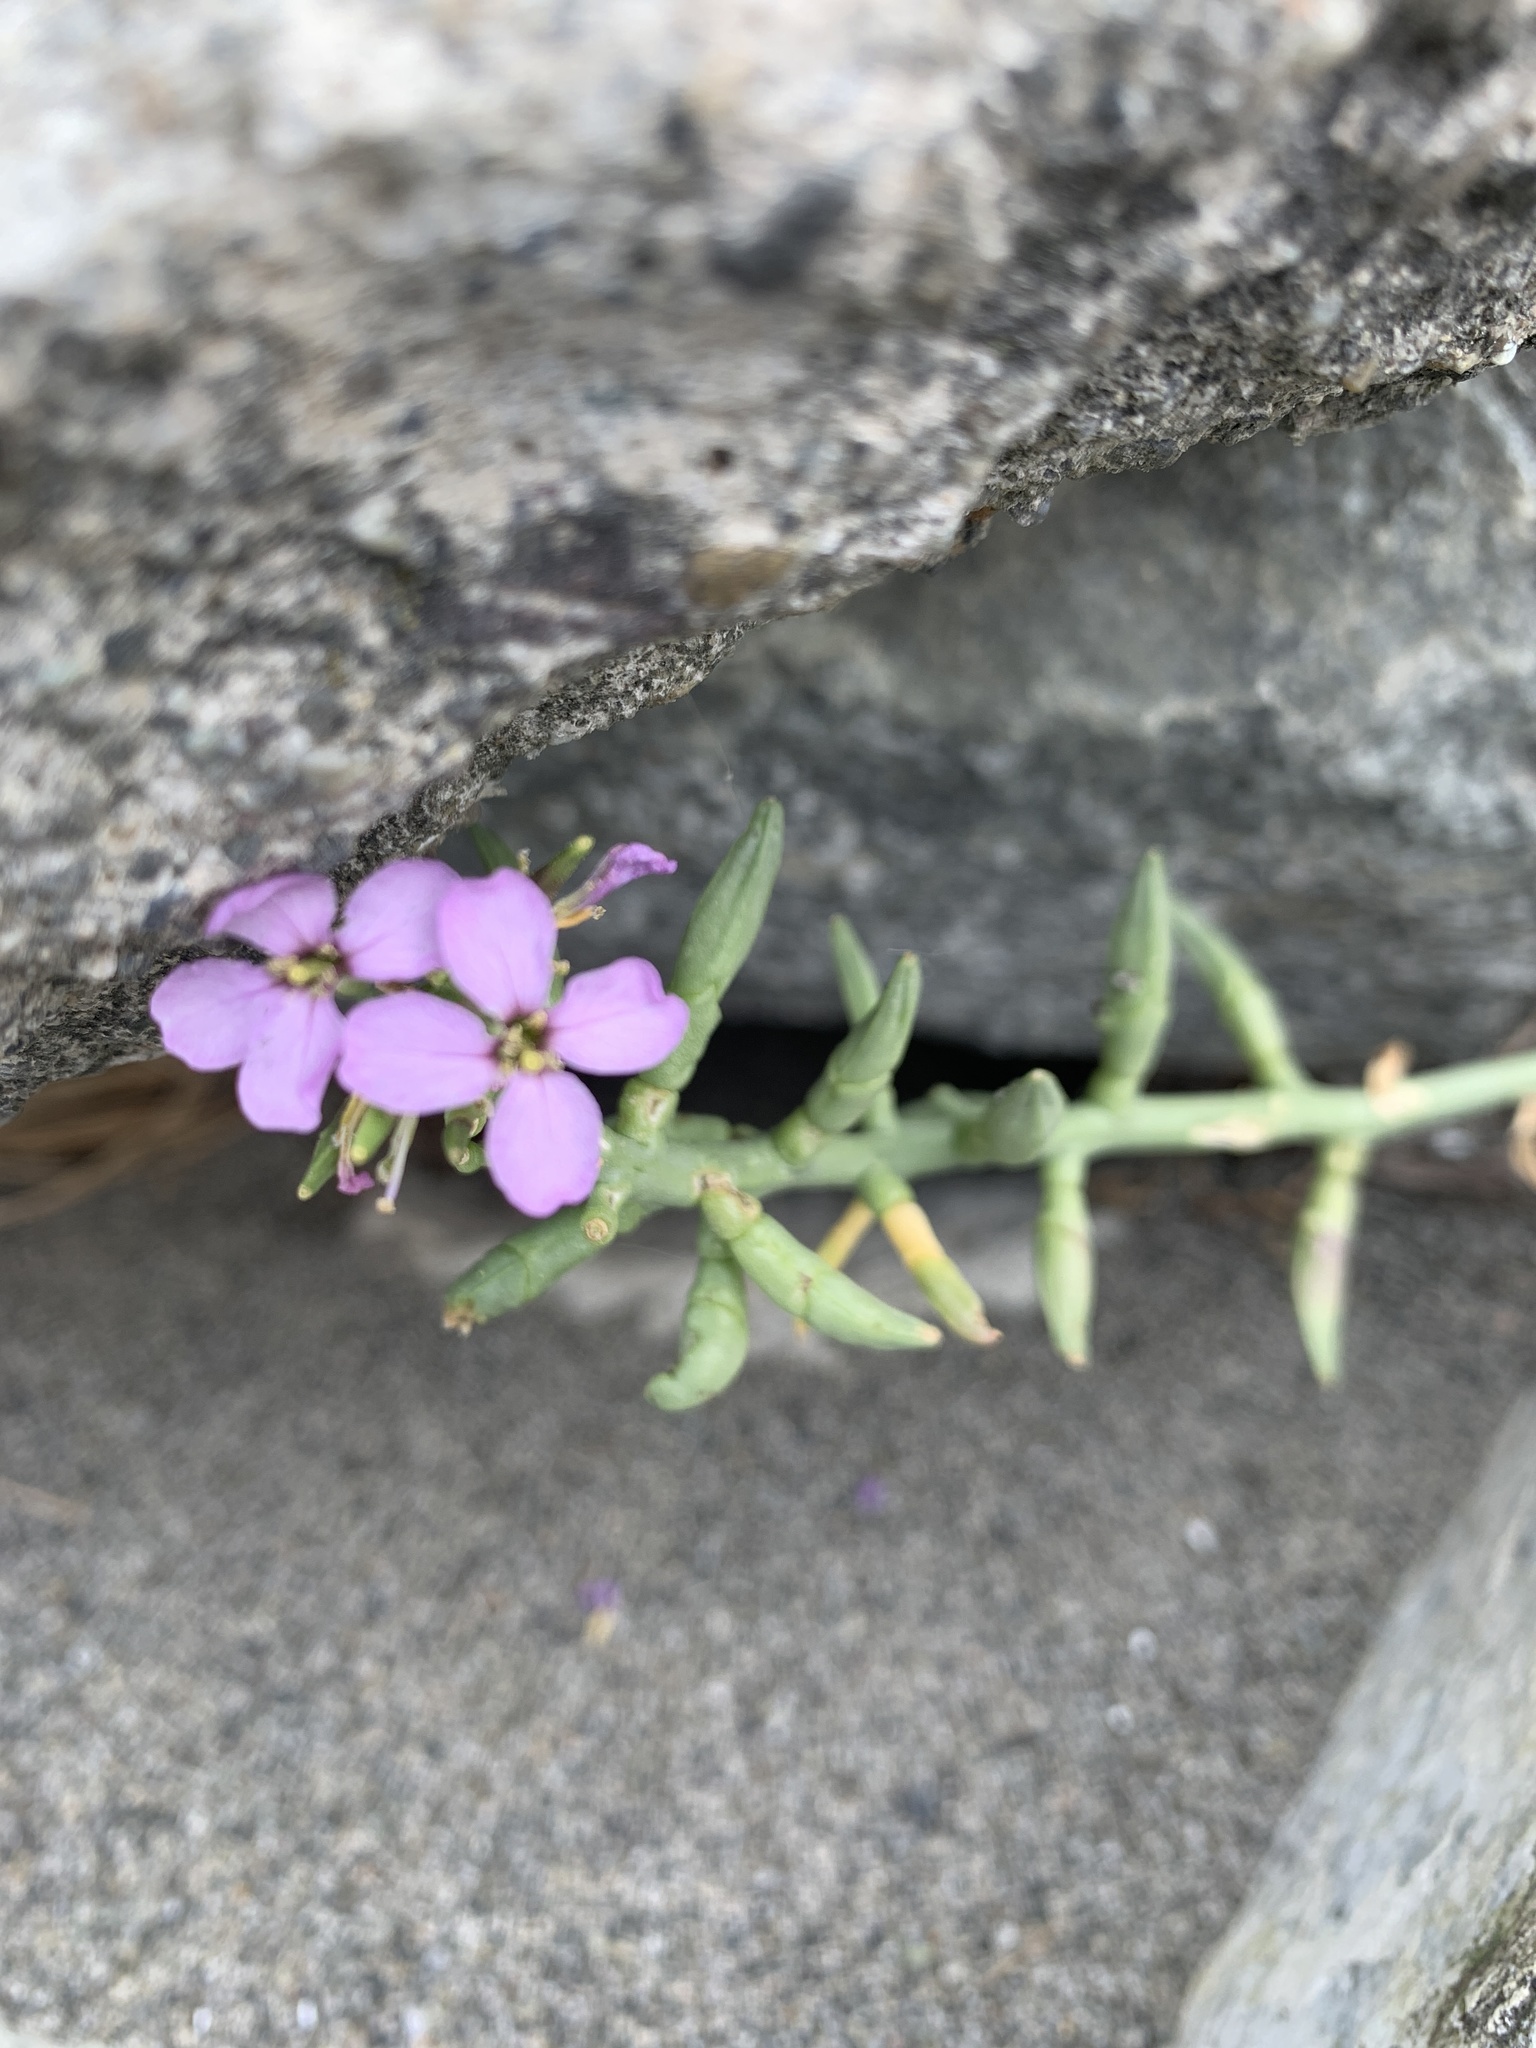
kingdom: Plantae
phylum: Tracheophyta
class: Magnoliopsida
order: Brassicales
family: Brassicaceae
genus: Cakile
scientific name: Cakile maritima
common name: Sea rocket
